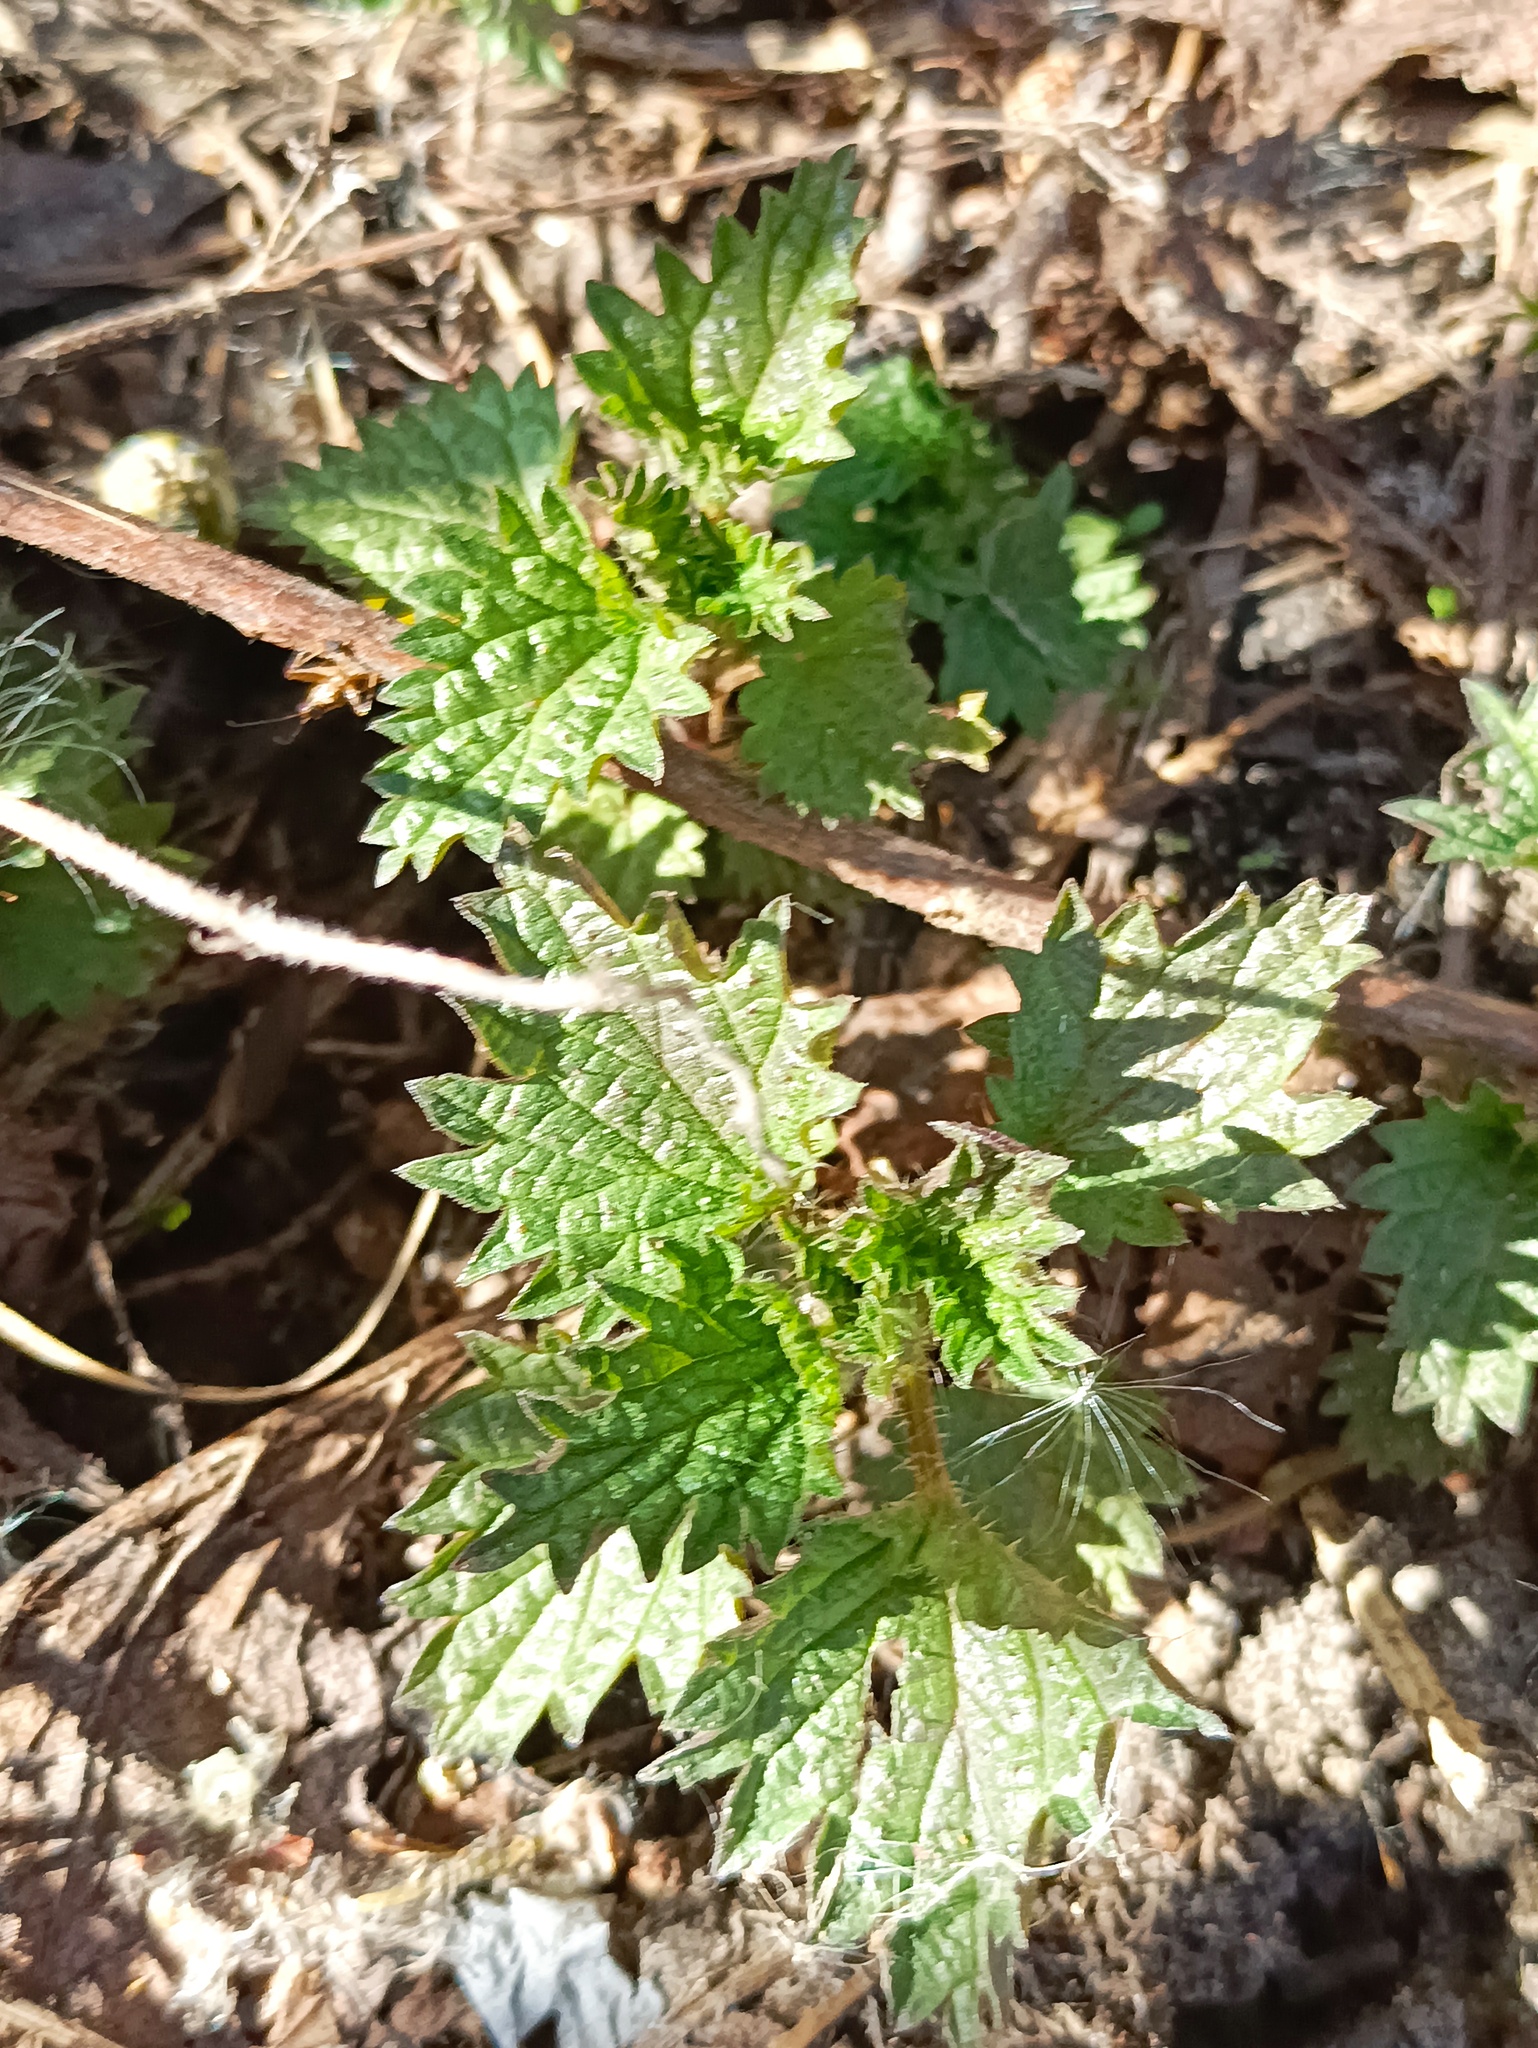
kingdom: Plantae
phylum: Tracheophyta
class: Magnoliopsida
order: Rosales
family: Urticaceae
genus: Urtica
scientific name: Urtica dioica
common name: Common nettle
